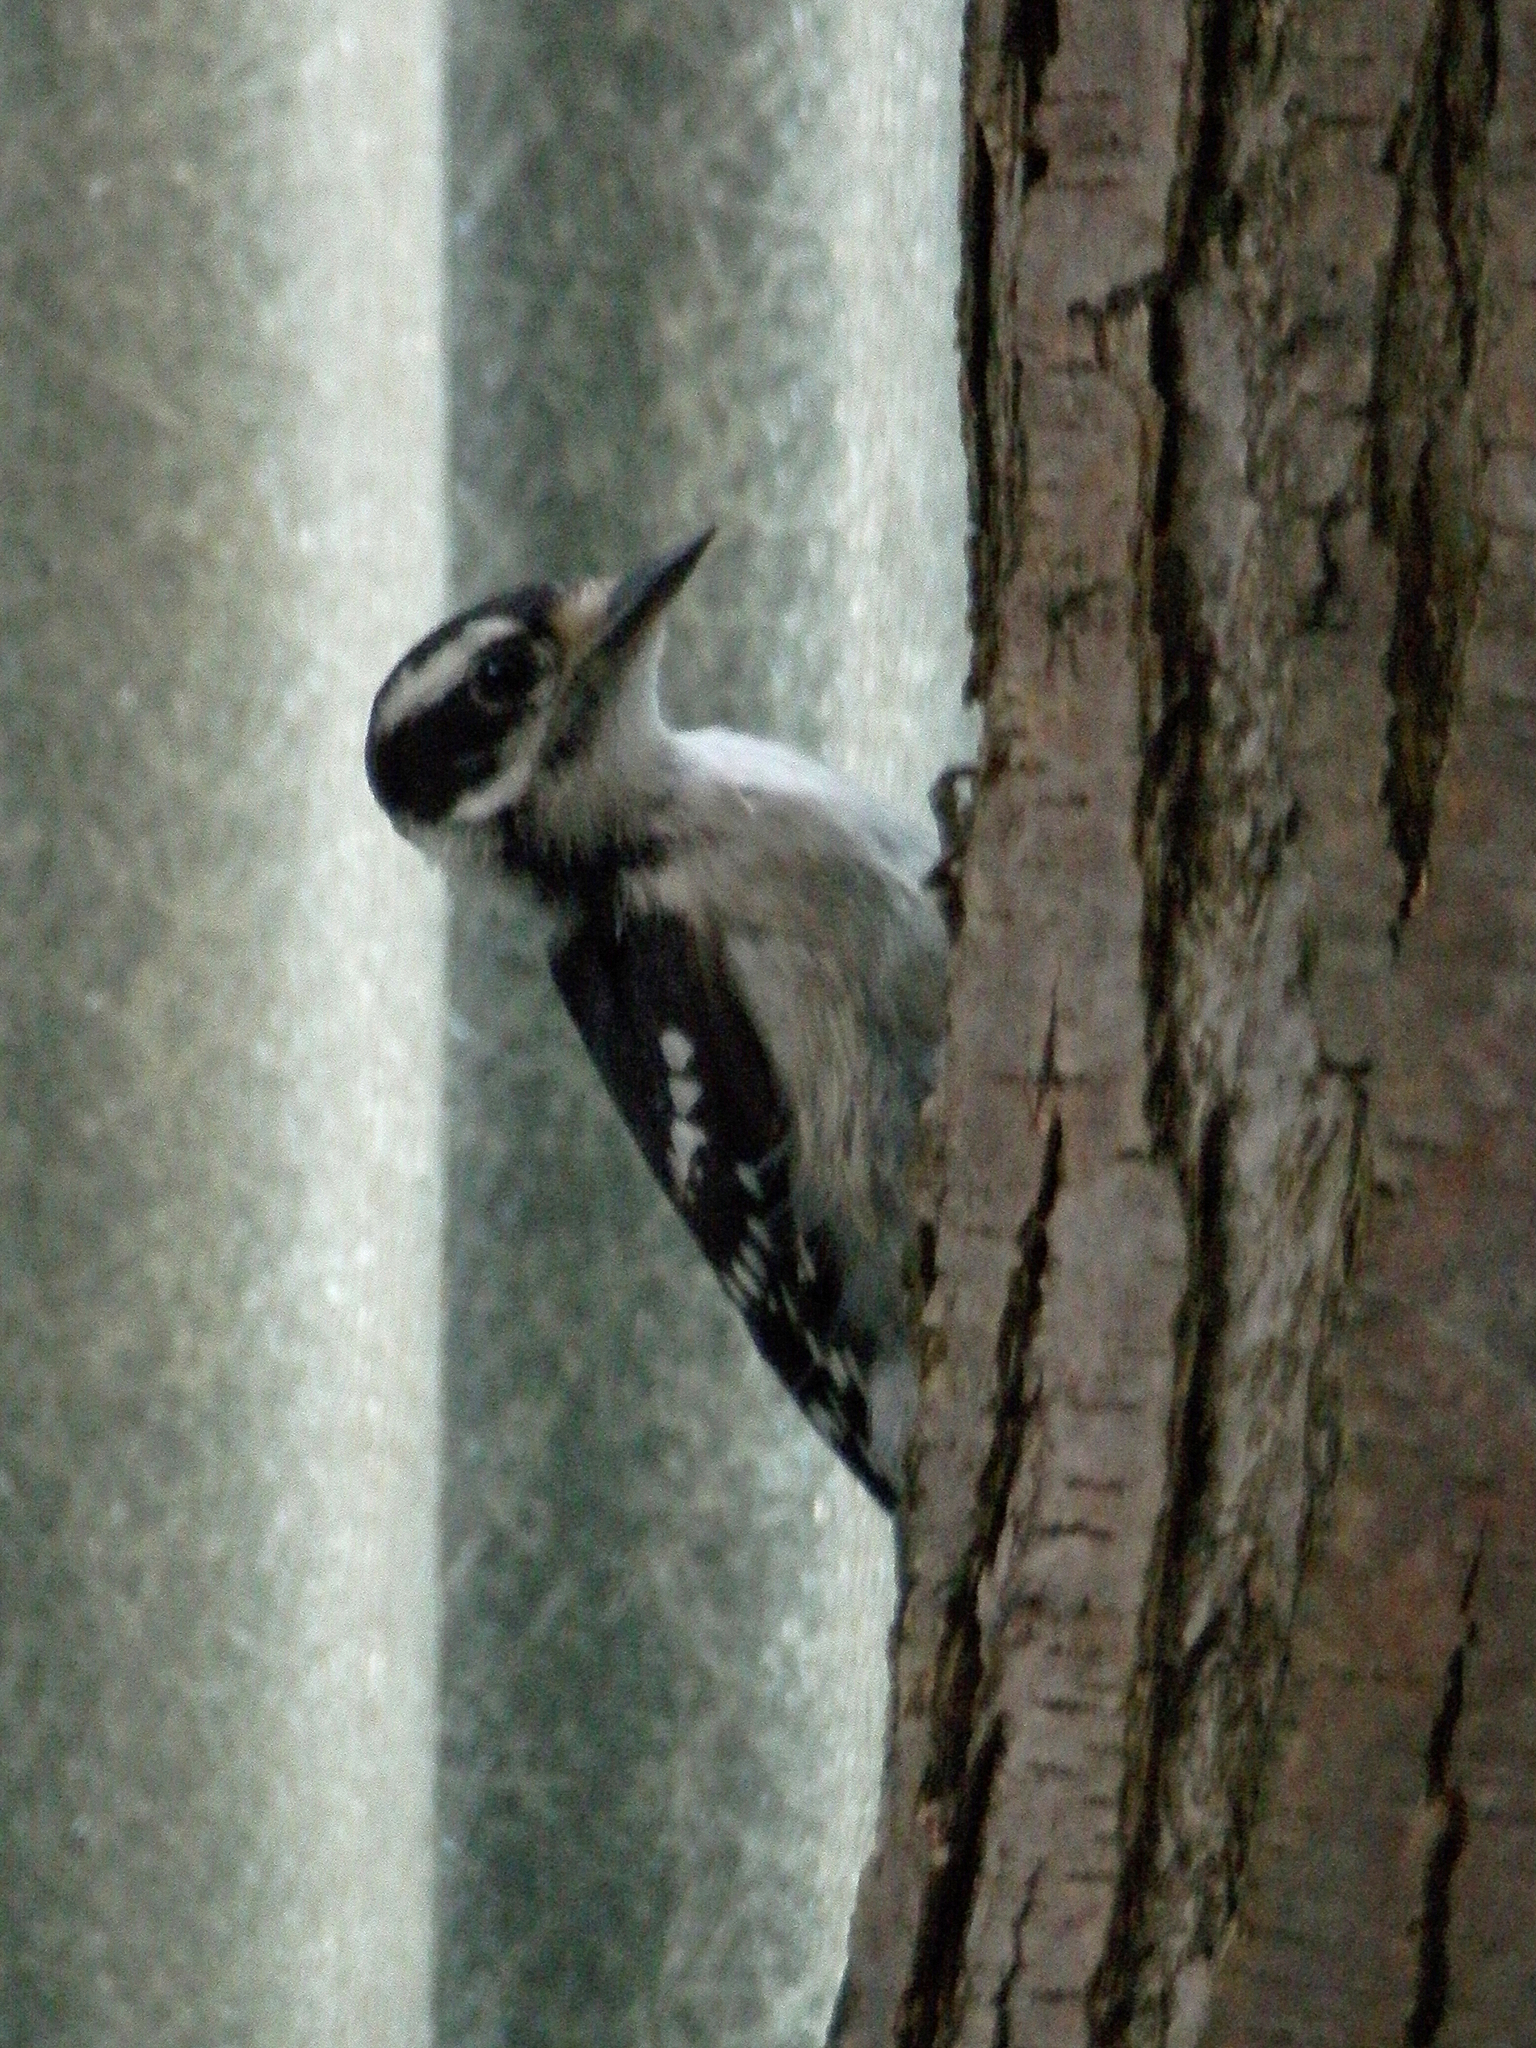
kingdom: Animalia
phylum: Chordata
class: Aves
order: Piciformes
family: Picidae
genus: Dryobates
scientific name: Dryobates pubescens
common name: Downy woodpecker
